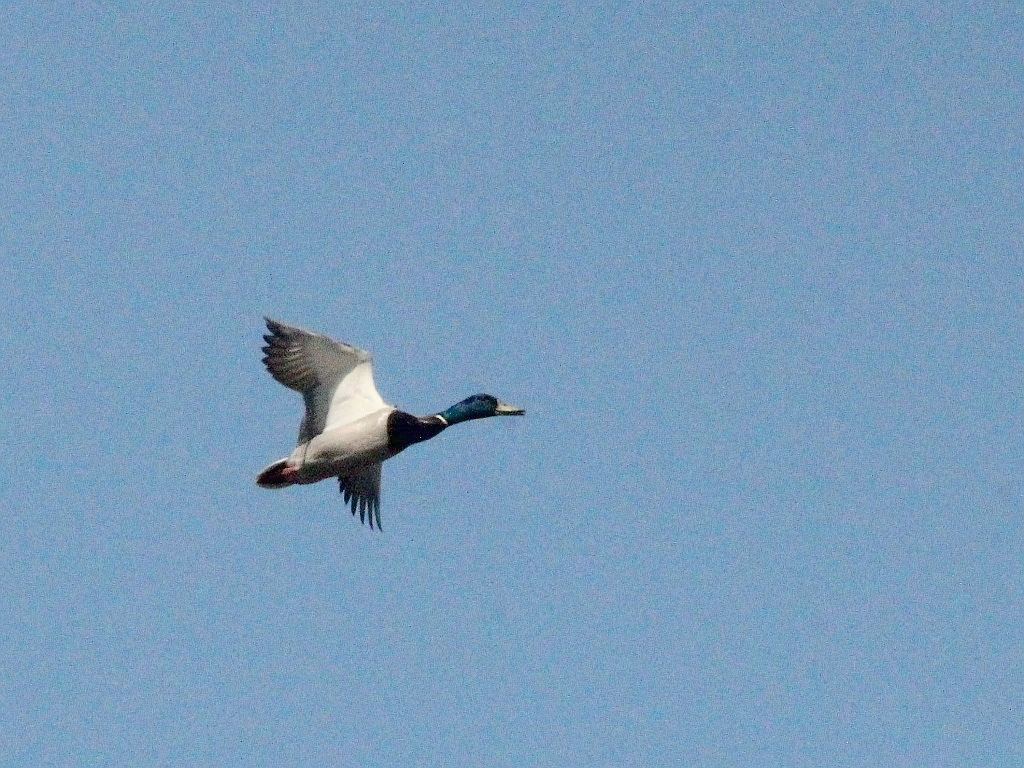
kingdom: Animalia
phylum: Chordata
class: Aves
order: Anseriformes
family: Anatidae
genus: Anas
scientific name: Anas platyrhynchos
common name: Mallard
